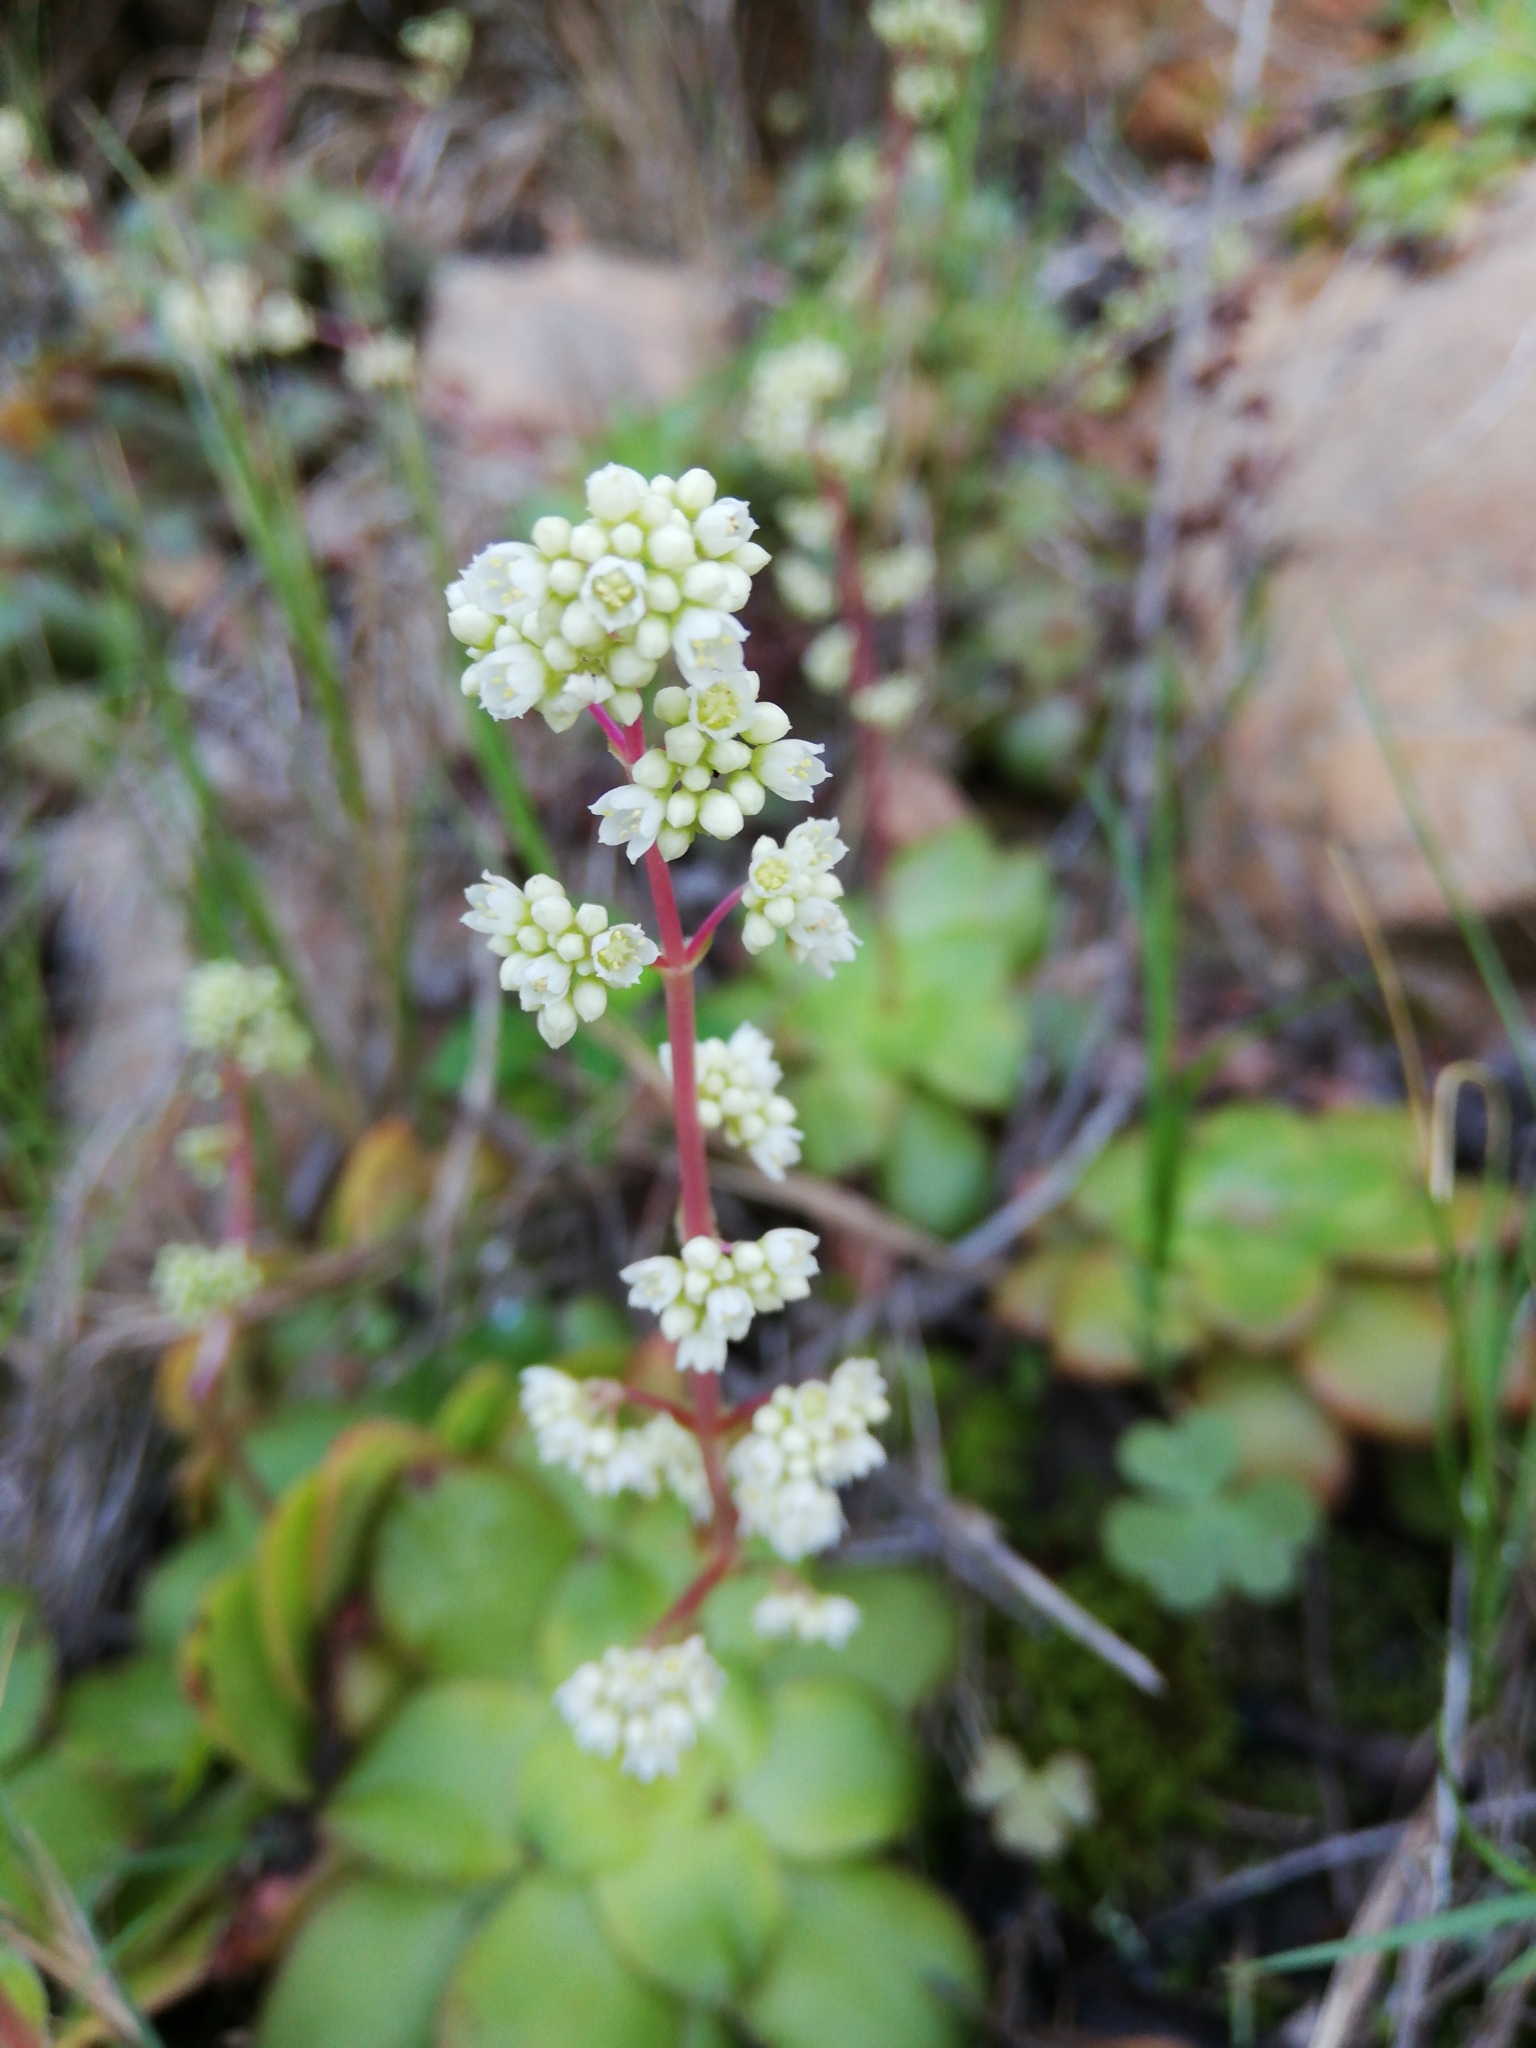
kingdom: Plantae
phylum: Tracheophyta
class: Magnoliopsida
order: Saxifragales
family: Crassulaceae
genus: Crassula
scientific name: Crassula orbicularis
